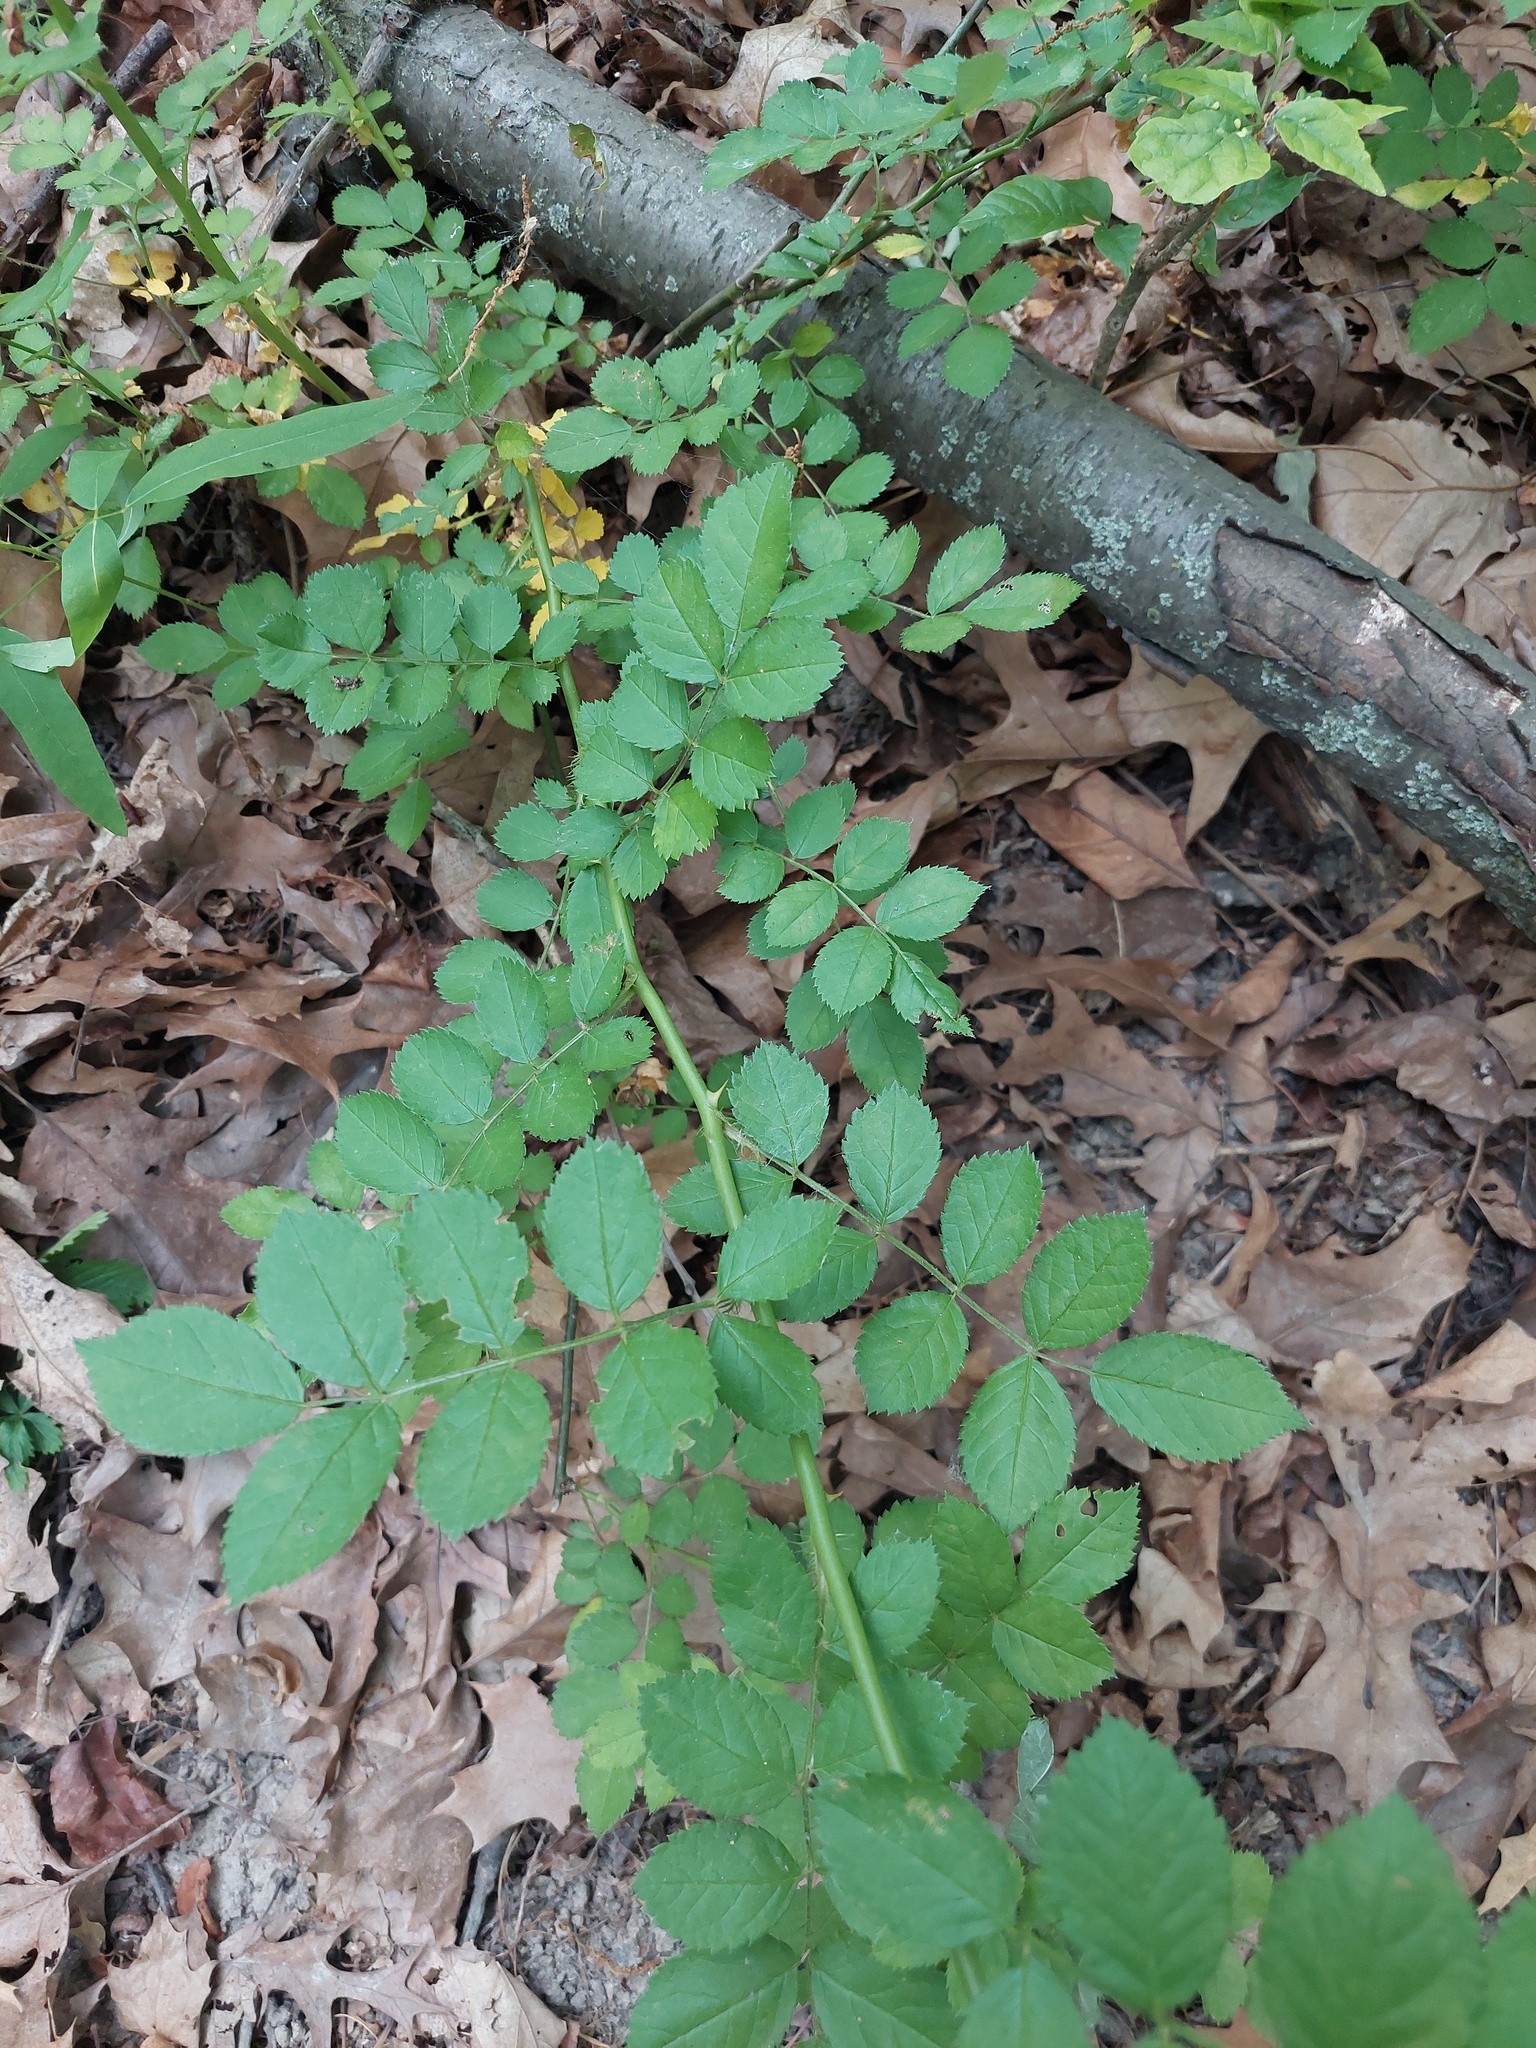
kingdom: Plantae
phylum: Tracheophyta
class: Magnoliopsida
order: Rosales
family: Rosaceae
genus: Rosa
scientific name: Rosa multiflora
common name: Multiflora rose
